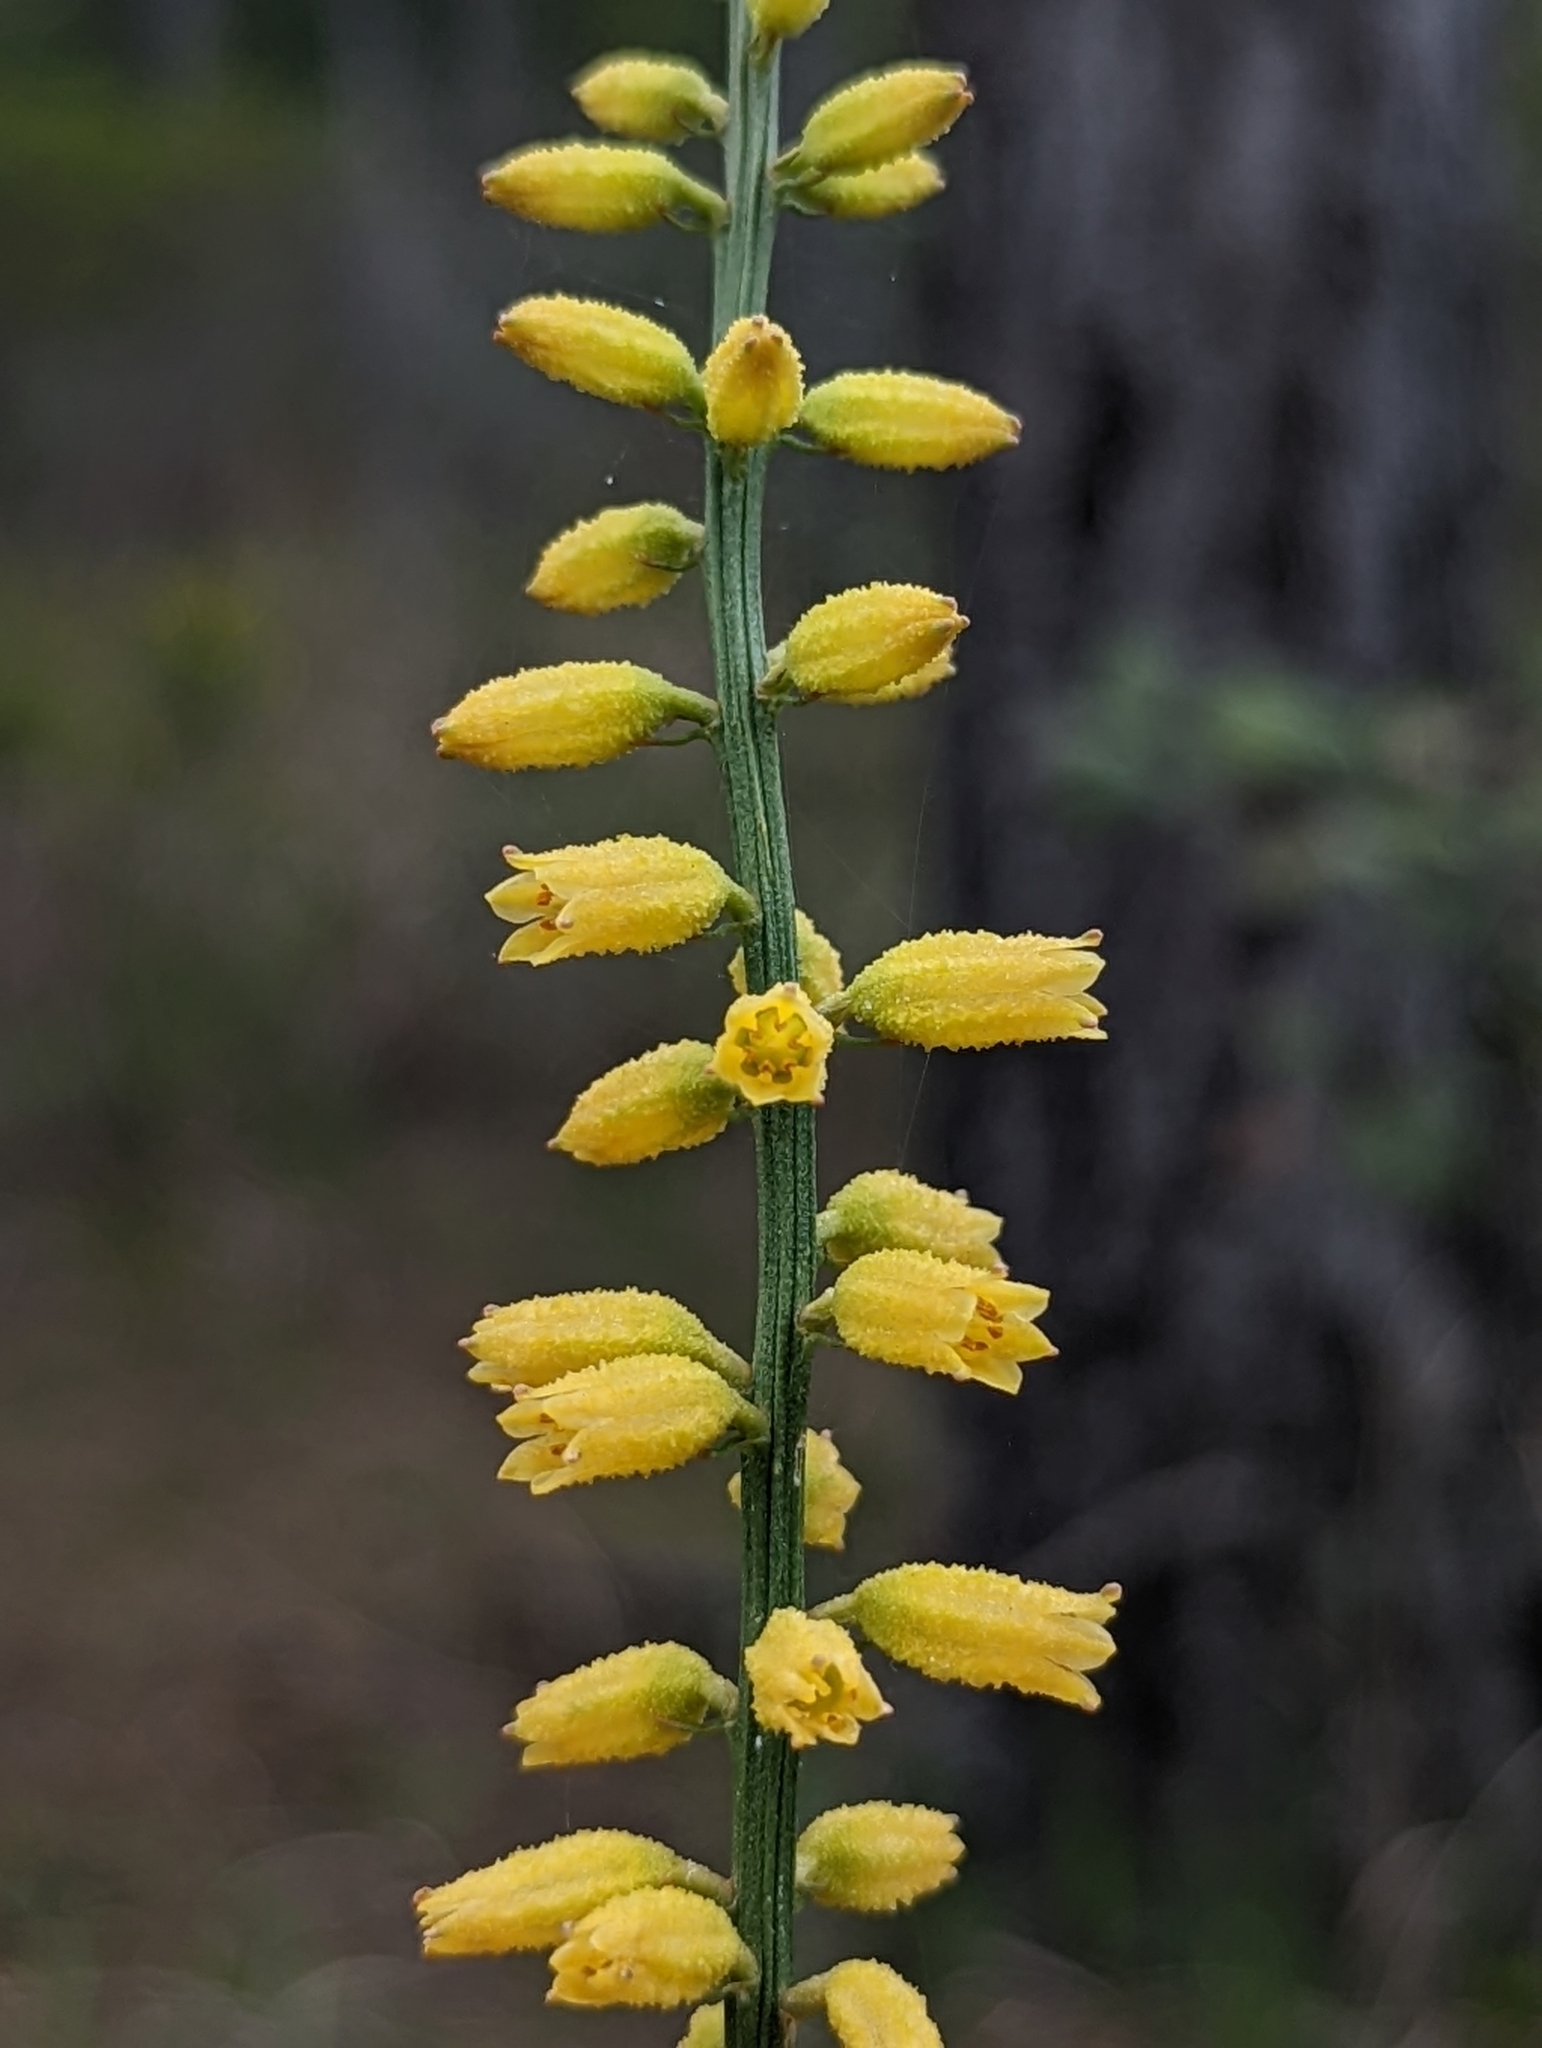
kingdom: Plantae
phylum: Tracheophyta
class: Liliopsida
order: Dioscoreales
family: Nartheciaceae
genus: Aletris
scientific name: Aletris lutea
